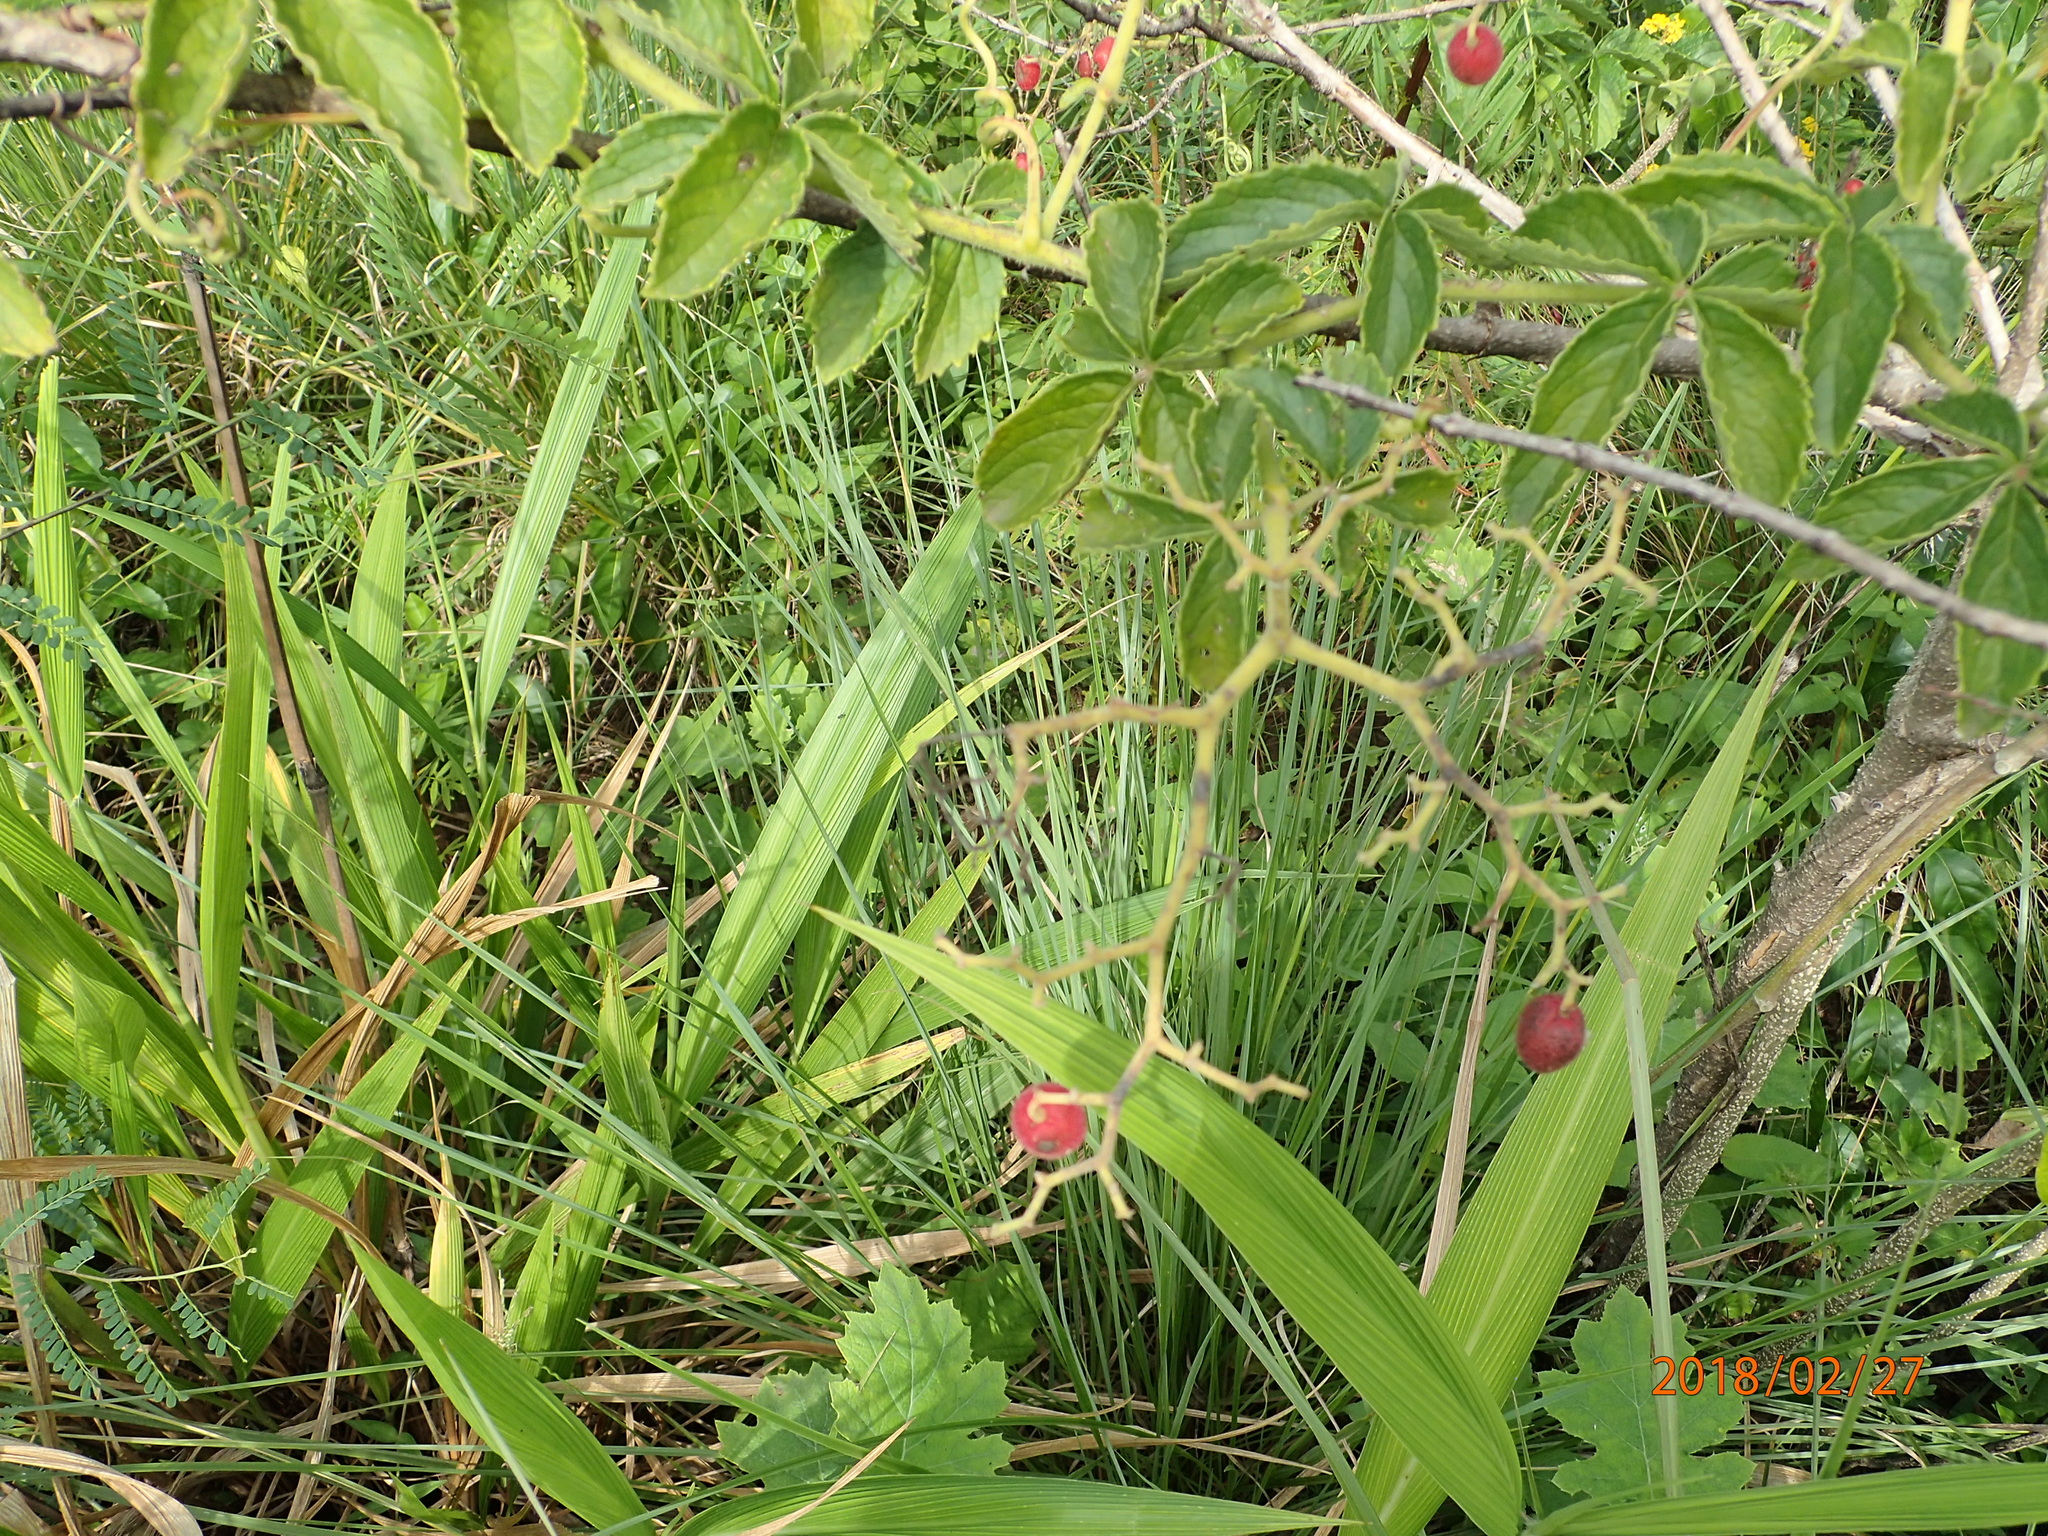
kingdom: Plantae
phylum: Tracheophyta
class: Magnoliopsida
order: Vitales
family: Vitaceae
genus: Cyphostemma
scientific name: Cyphostemma hypoleucum
